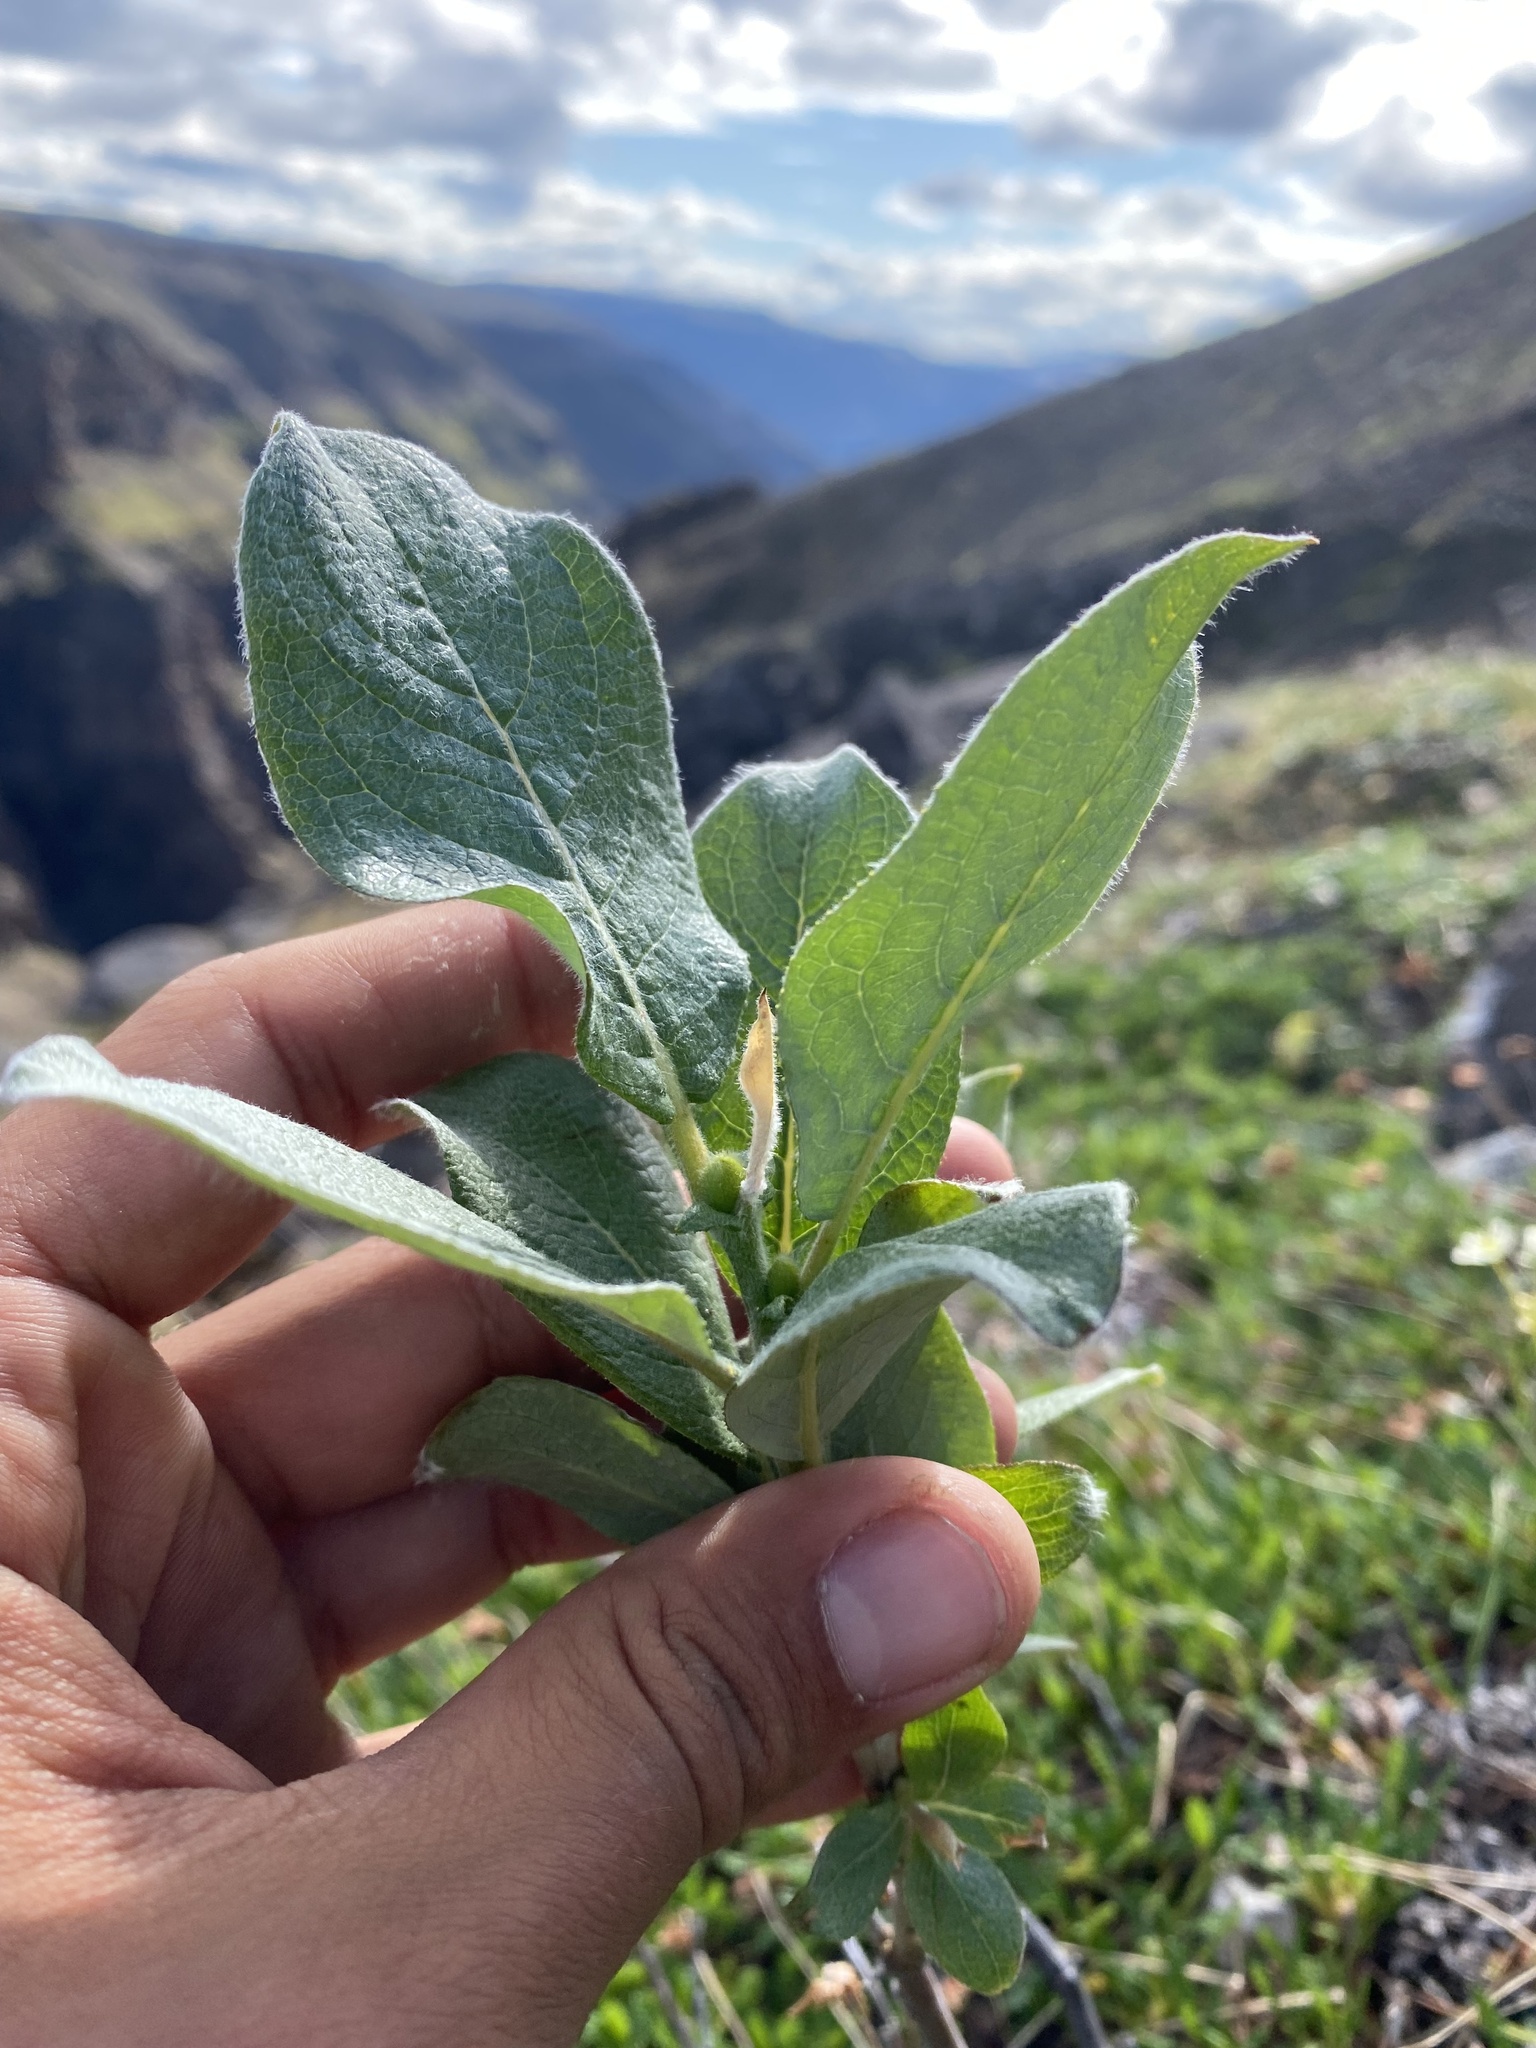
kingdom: Plantae
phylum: Tracheophyta
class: Magnoliopsida
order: Malpighiales
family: Salicaceae
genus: Salix
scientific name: Salix lanata
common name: Woolly willow
